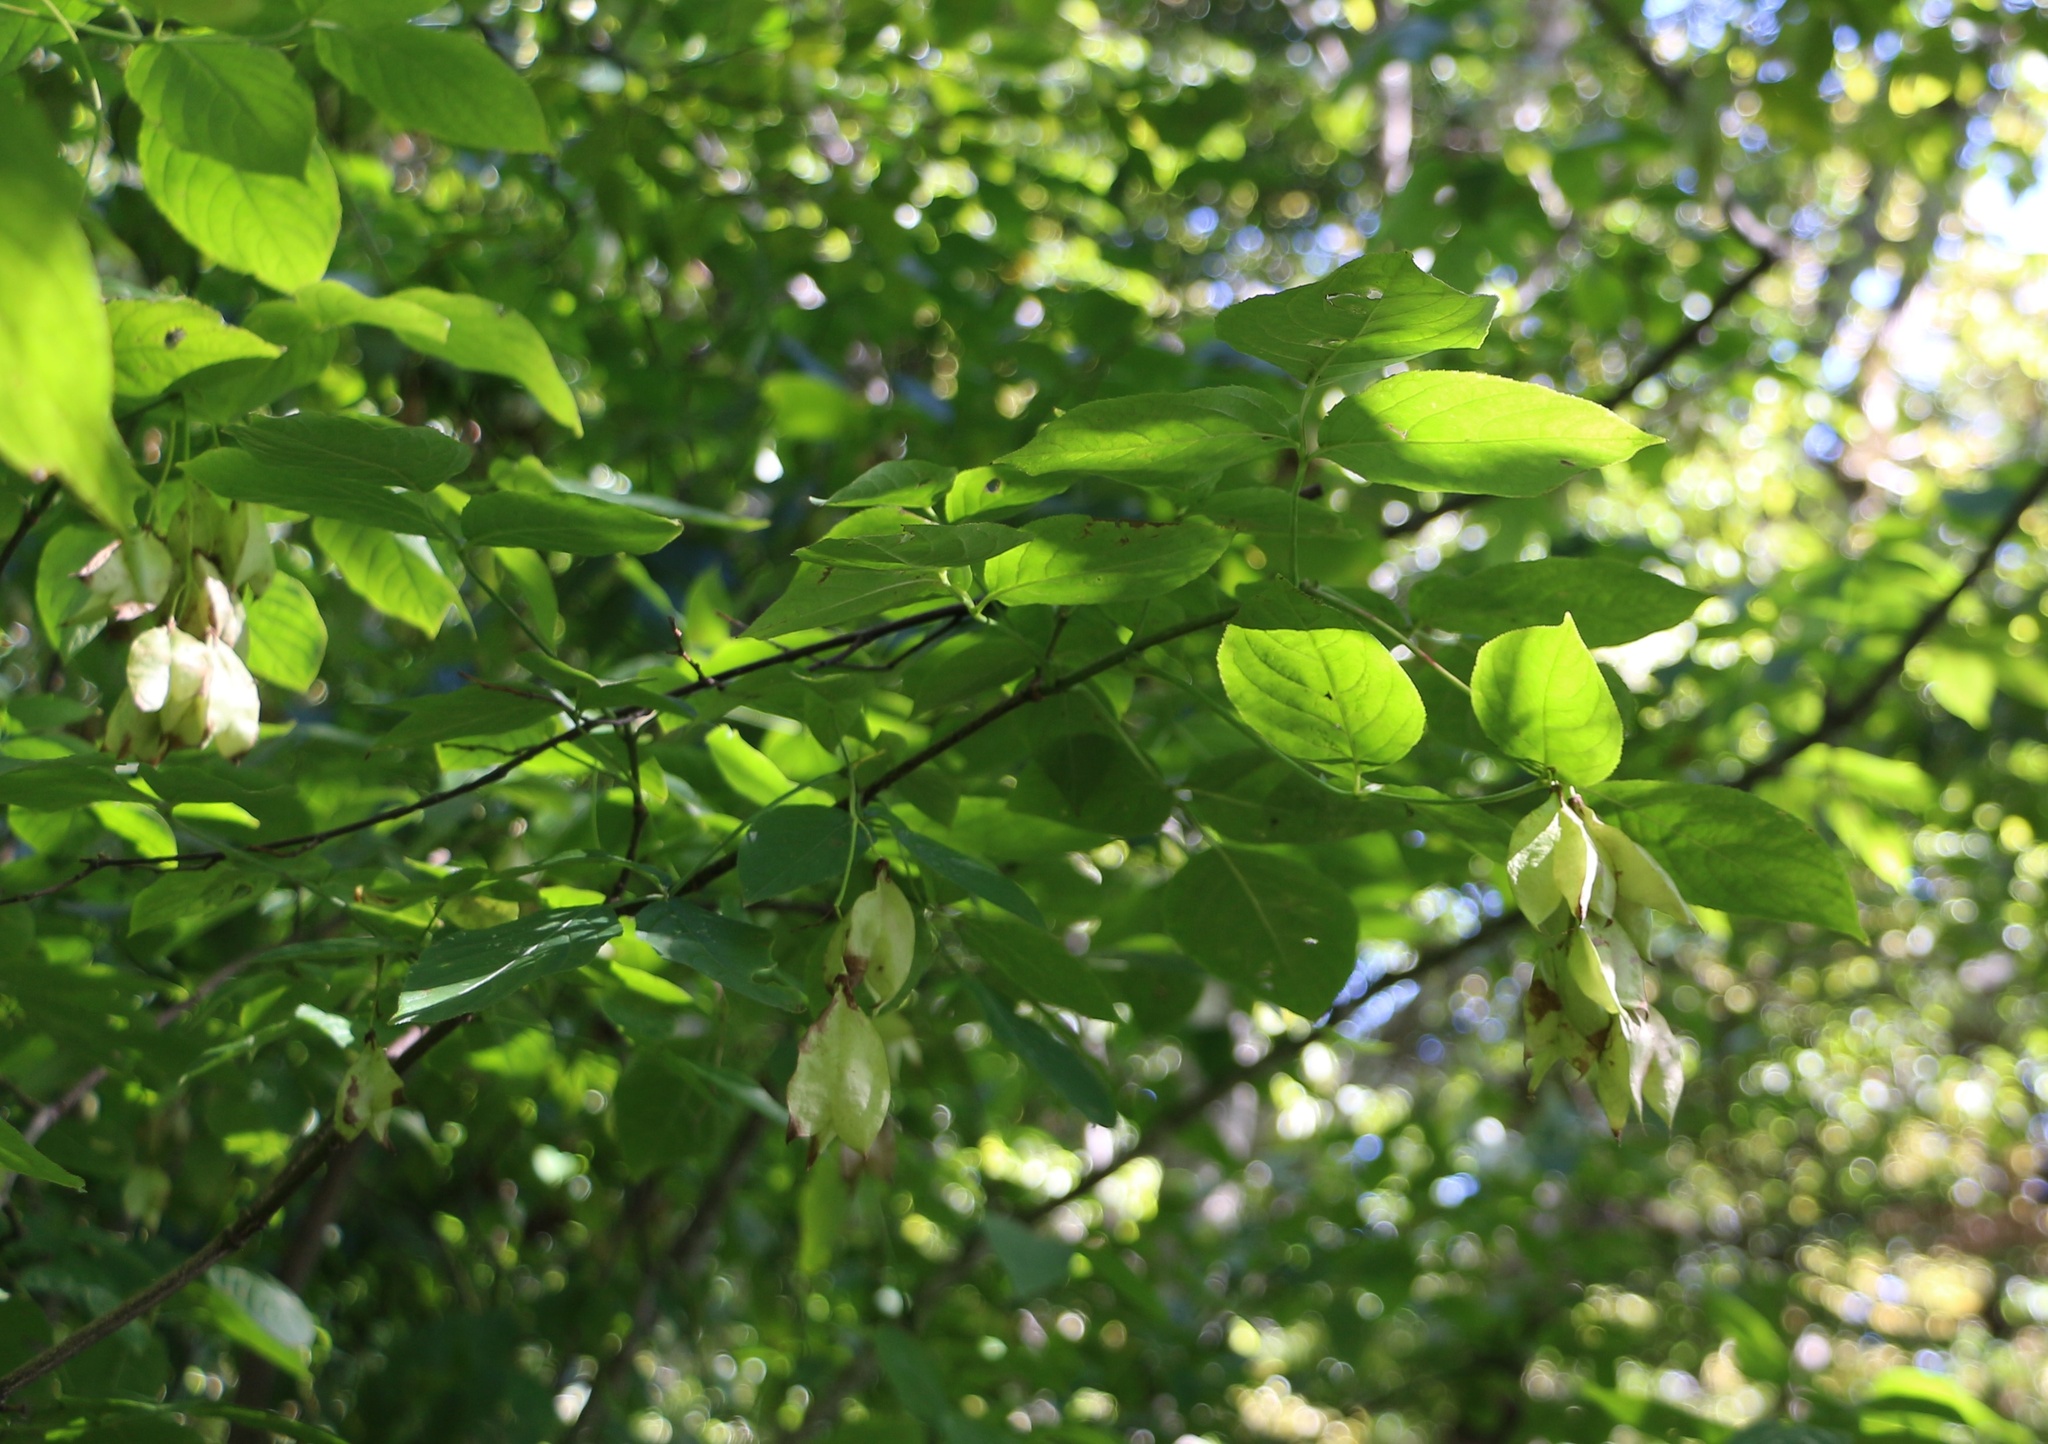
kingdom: Plantae
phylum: Tracheophyta
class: Magnoliopsida
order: Crossosomatales
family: Staphyleaceae
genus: Staphylea
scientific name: Staphylea colchica
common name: Caucasian bladdernut
